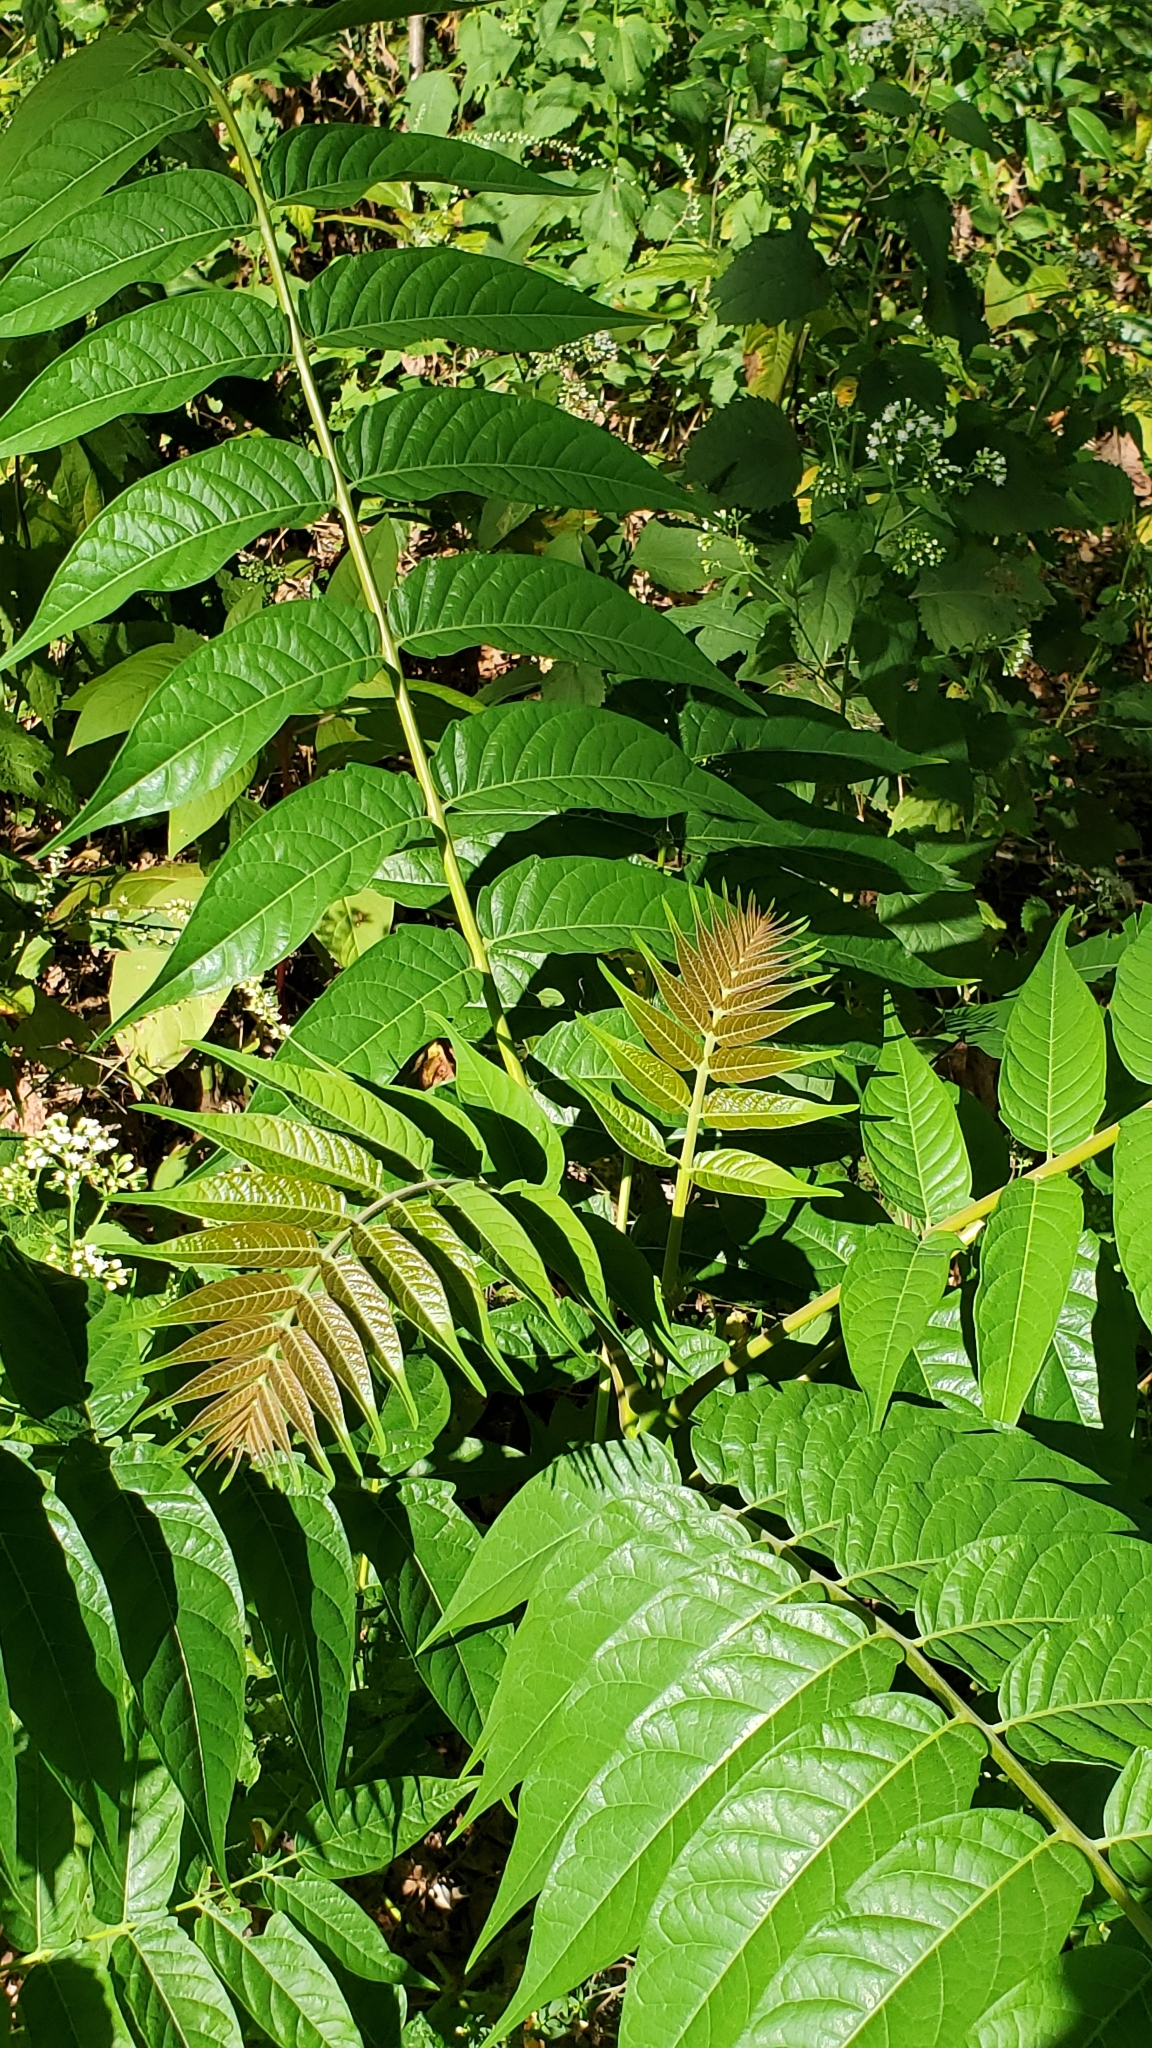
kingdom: Plantae
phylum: Tracheophyta
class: Magnoliopsida
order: Sapindales
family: Simaroubaceae
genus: Ailanthus
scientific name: Ailanthus altissima
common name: Tree-of-heaven
